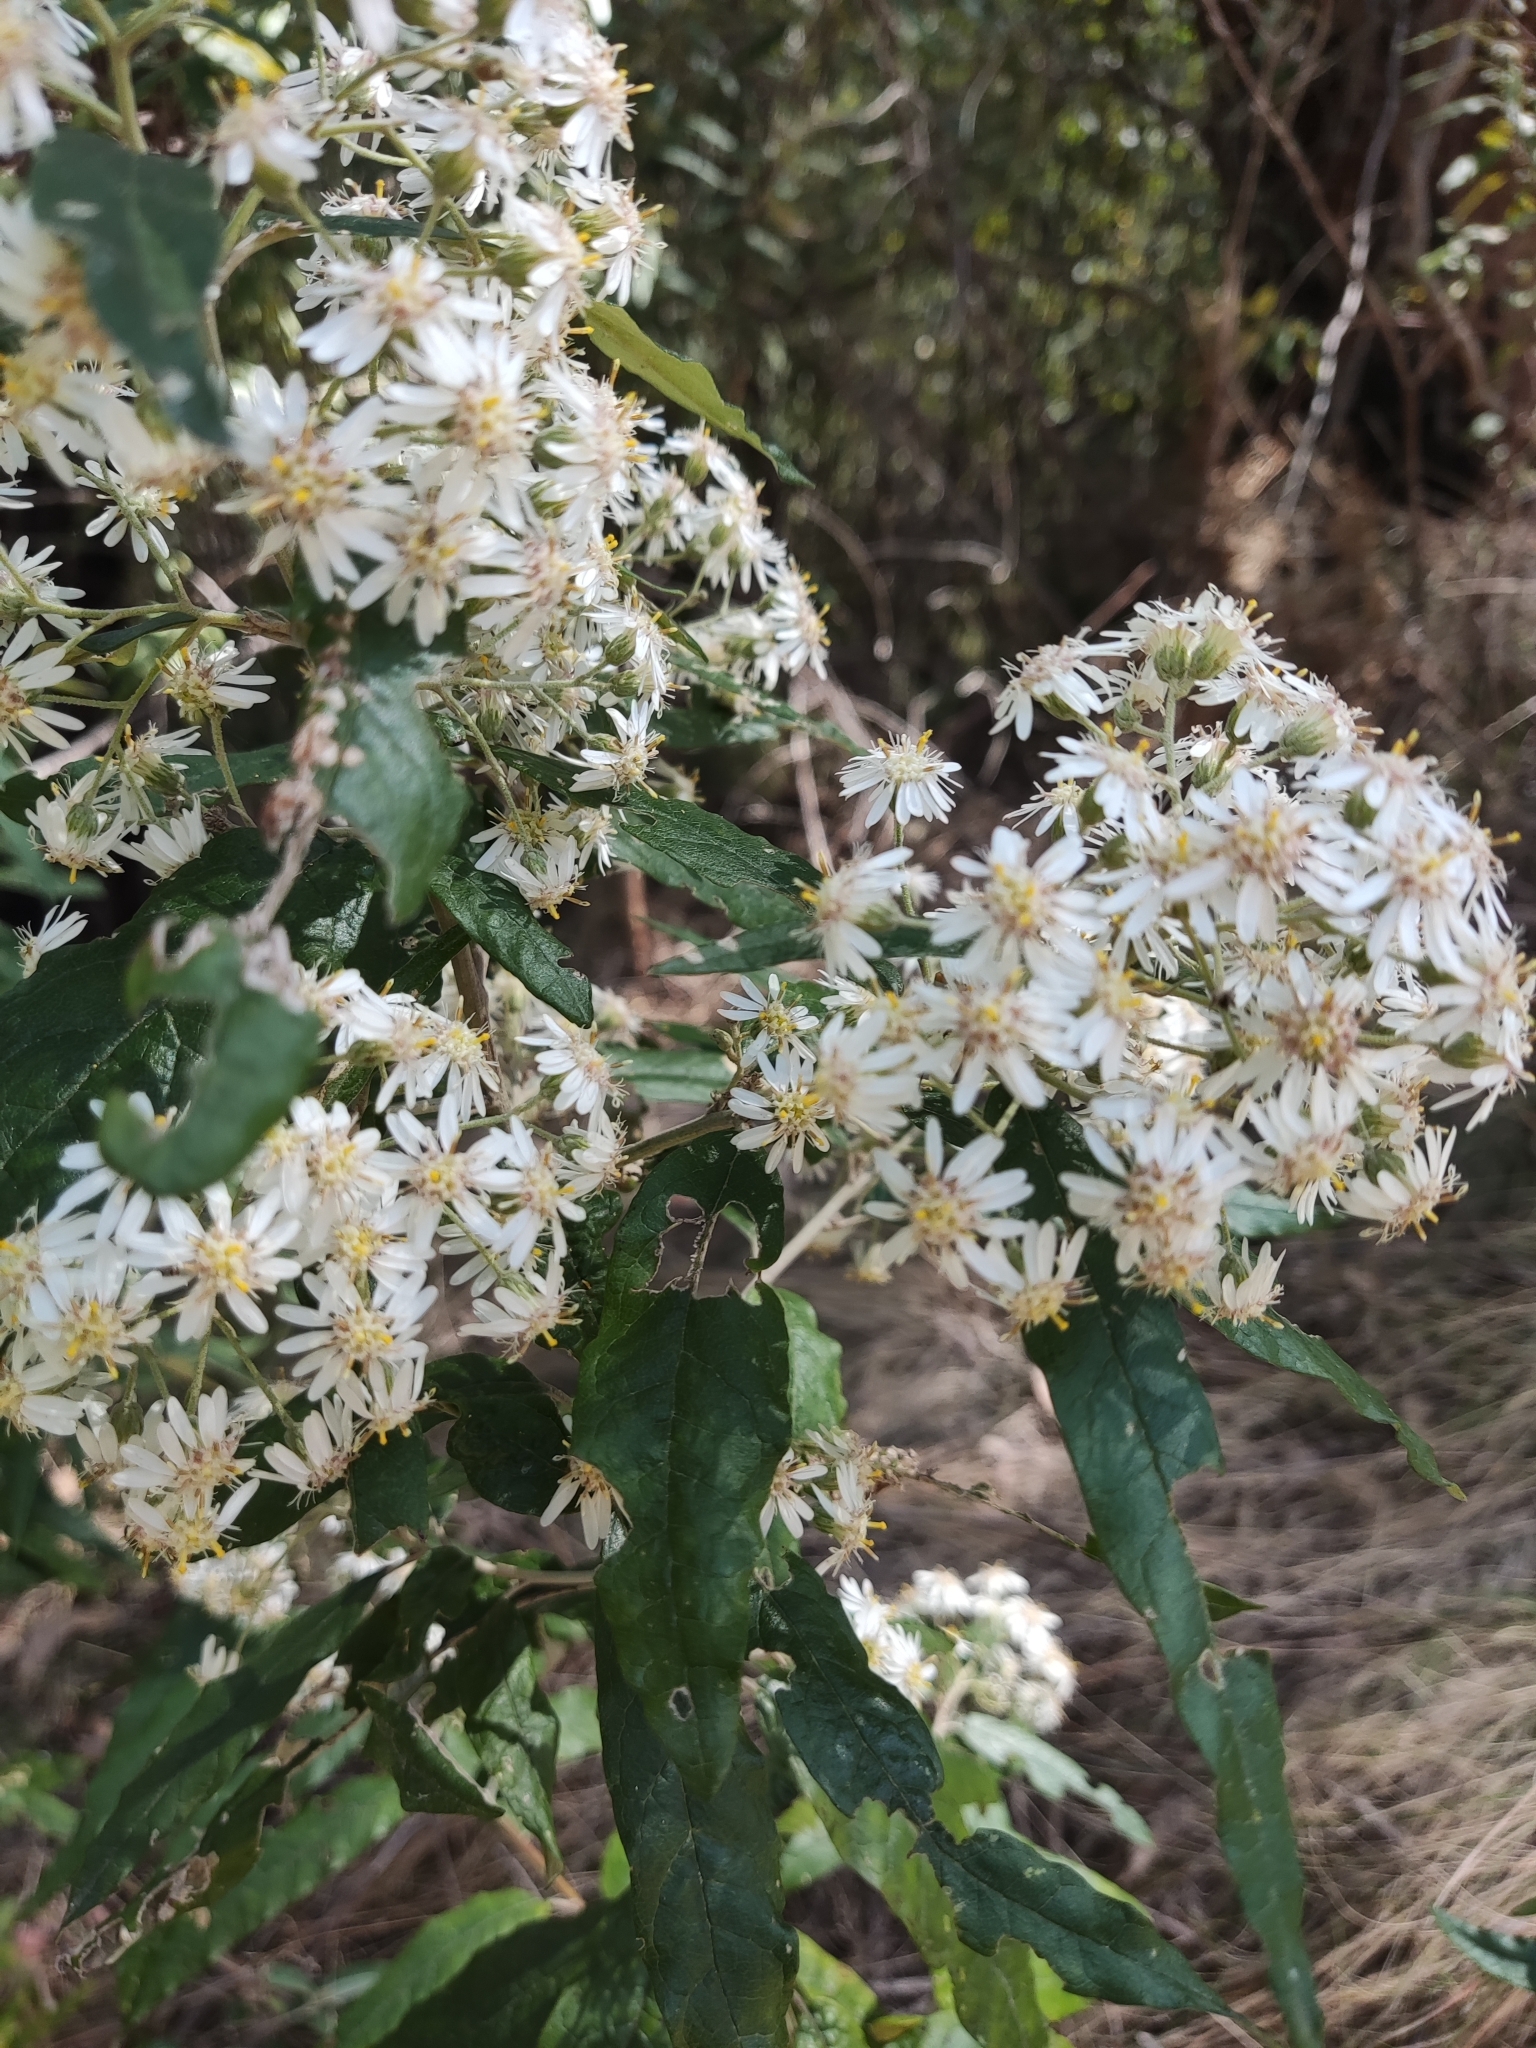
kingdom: Plantae
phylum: Tracheophyta
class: Magnoliopsida
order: Asterales
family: Asteraceae
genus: Olearia
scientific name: Olearia lirata
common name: Dusty daisybush
